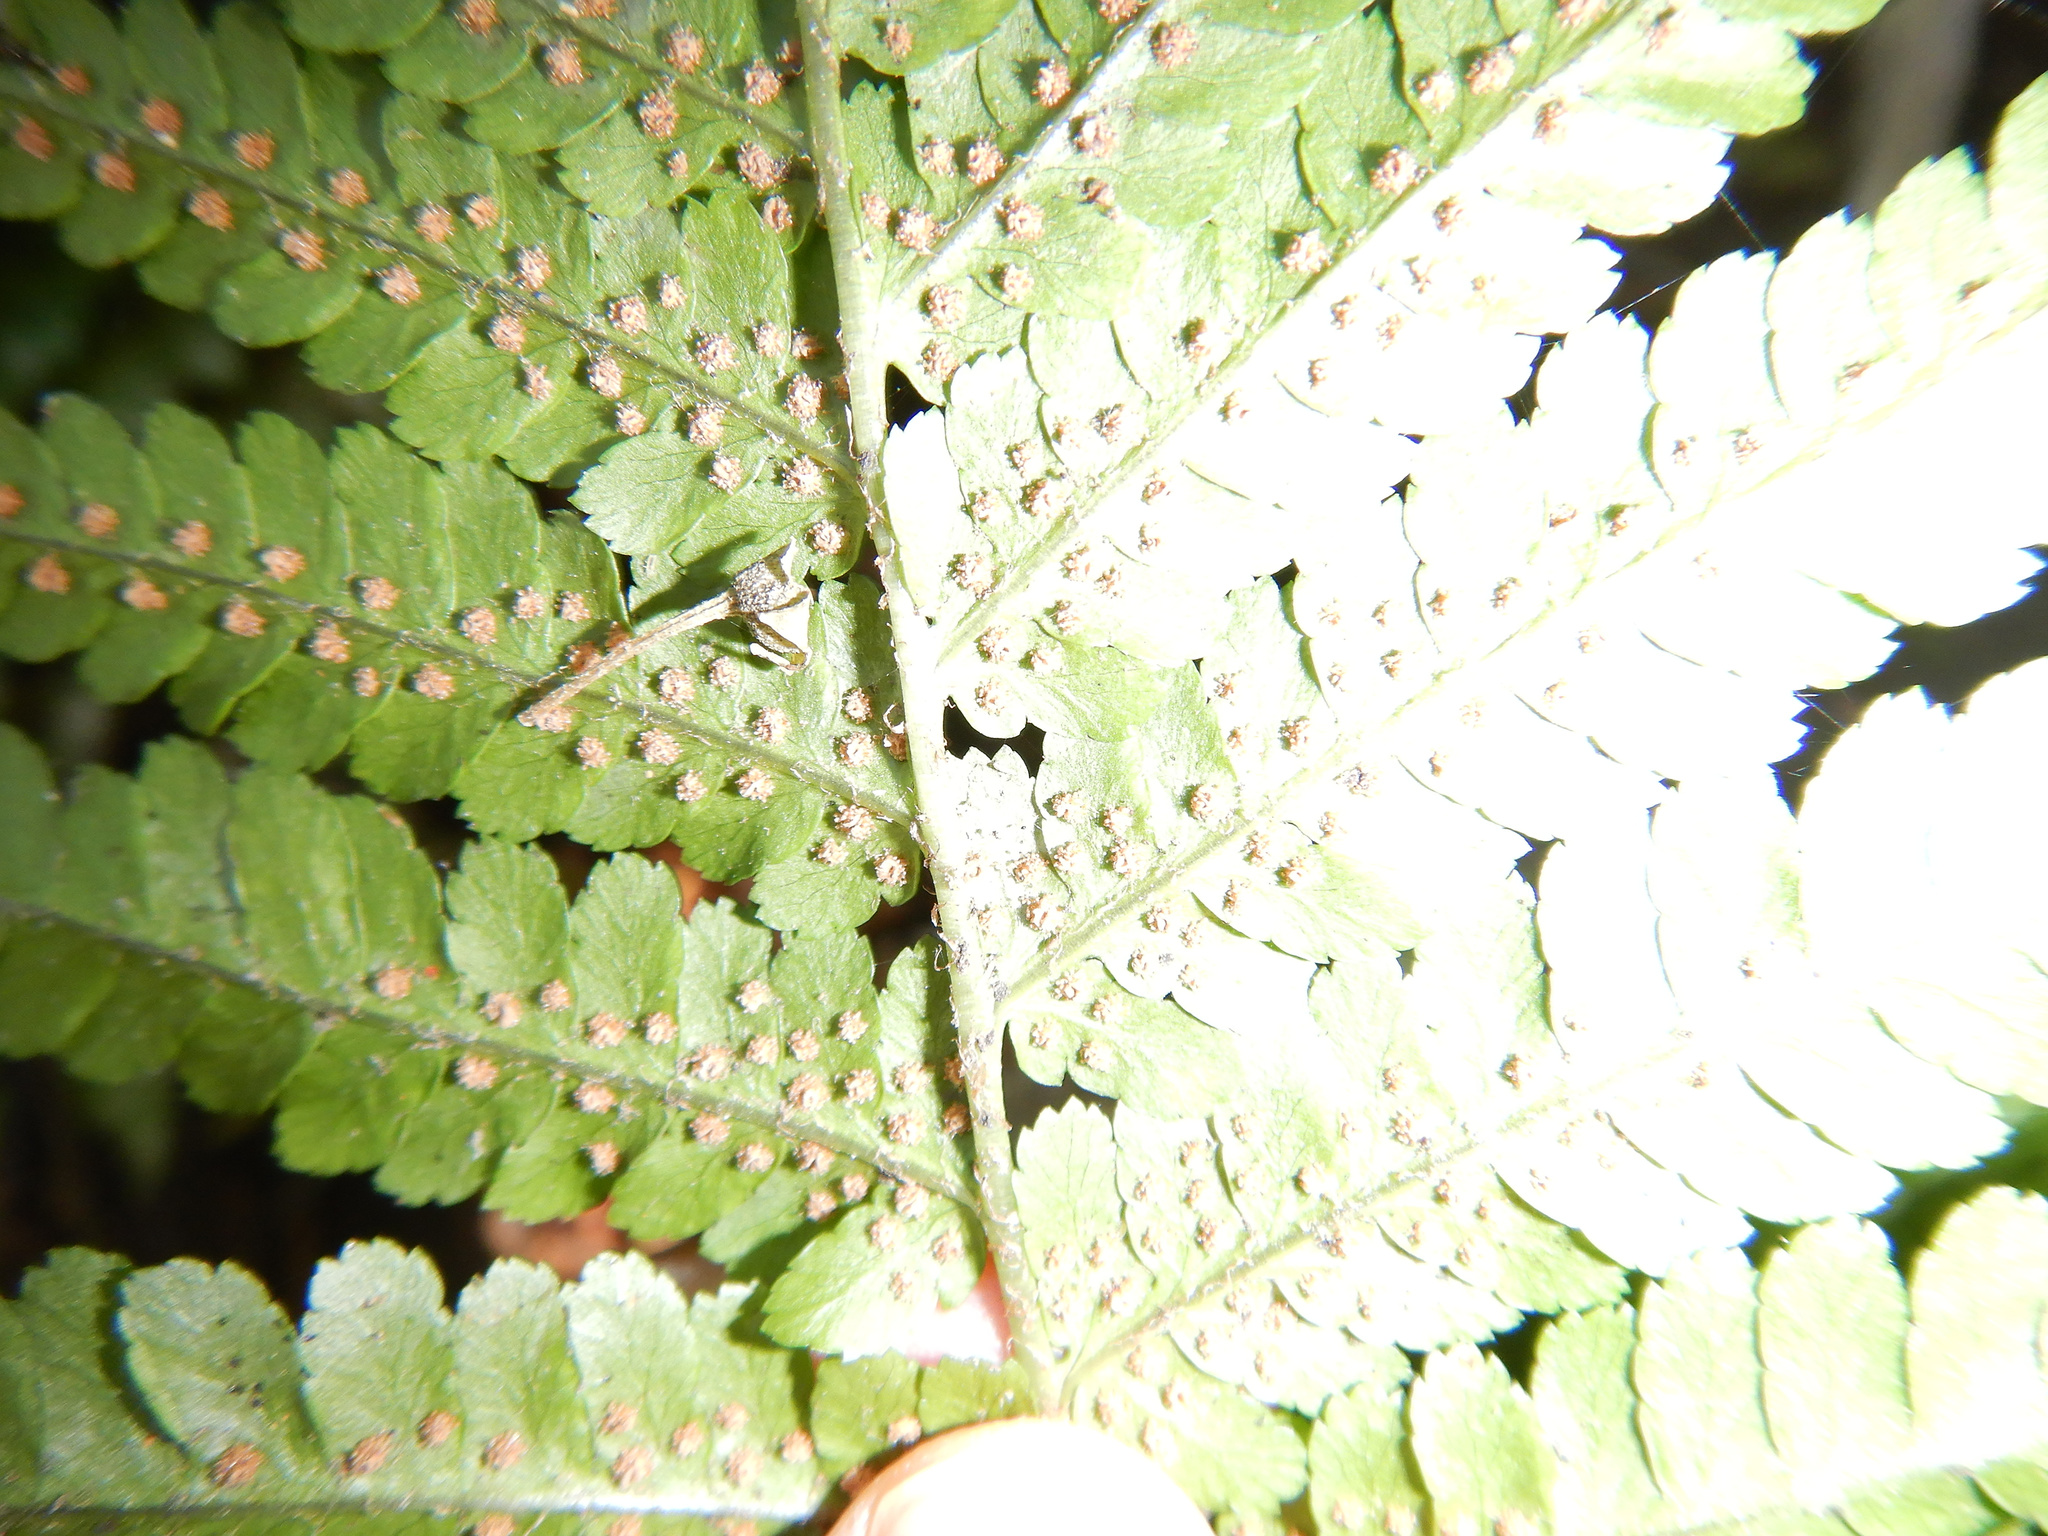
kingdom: Plantae
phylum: Tracheophyta
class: Polypodiopsida
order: Polypodiales
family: Dryopteridaceae
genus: Dryopteris
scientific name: Dryopteris filix-mas
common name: Male fern
